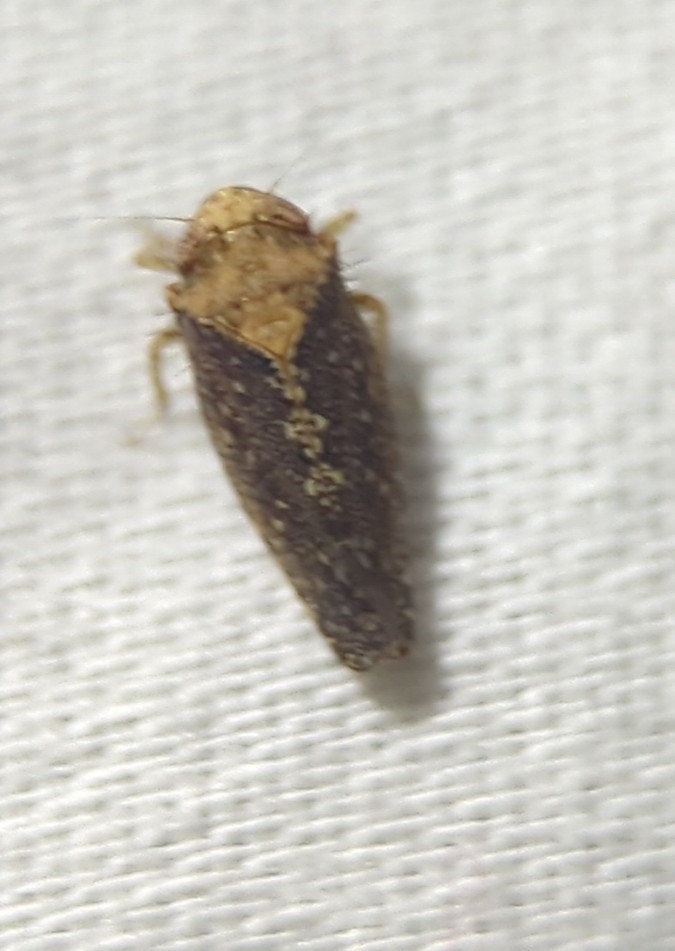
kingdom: Animalia
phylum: Arthropoda
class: Insecta
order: Hemiptera
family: Cicadellidae
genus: Excultanus
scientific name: Excultanus excultus
